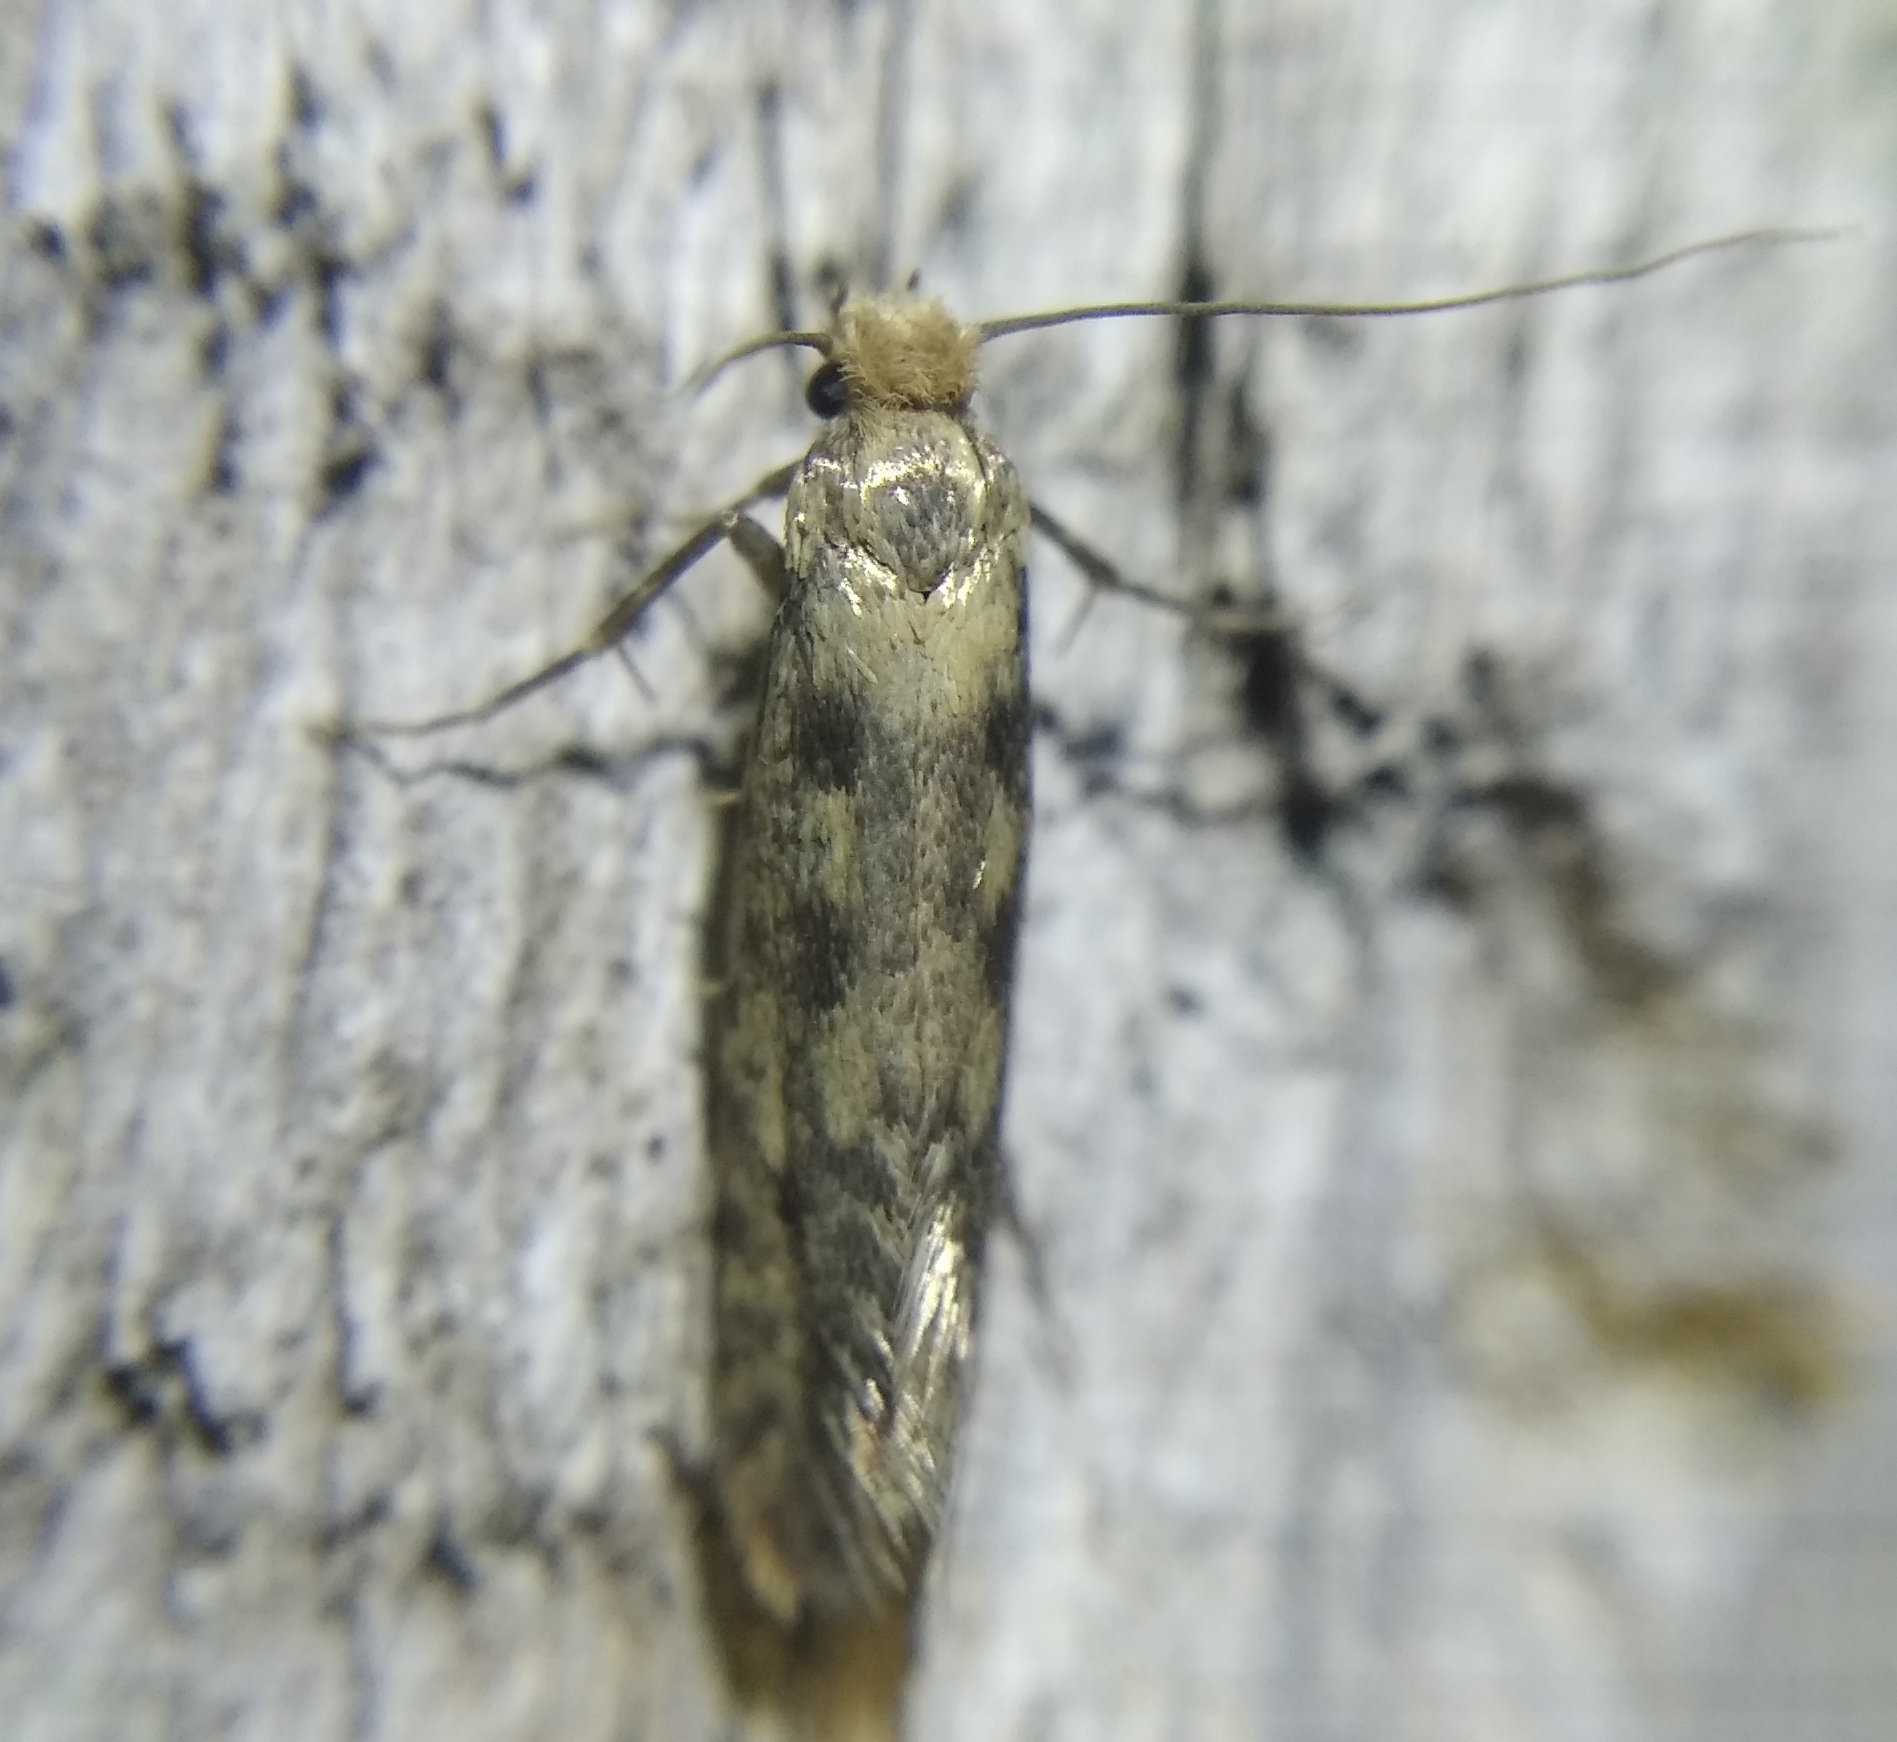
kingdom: Animalia
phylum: Arthropoda
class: Insecta
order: Lepidoptera
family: Tineidae
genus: Anemallota
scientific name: Anemallota tunesiella
